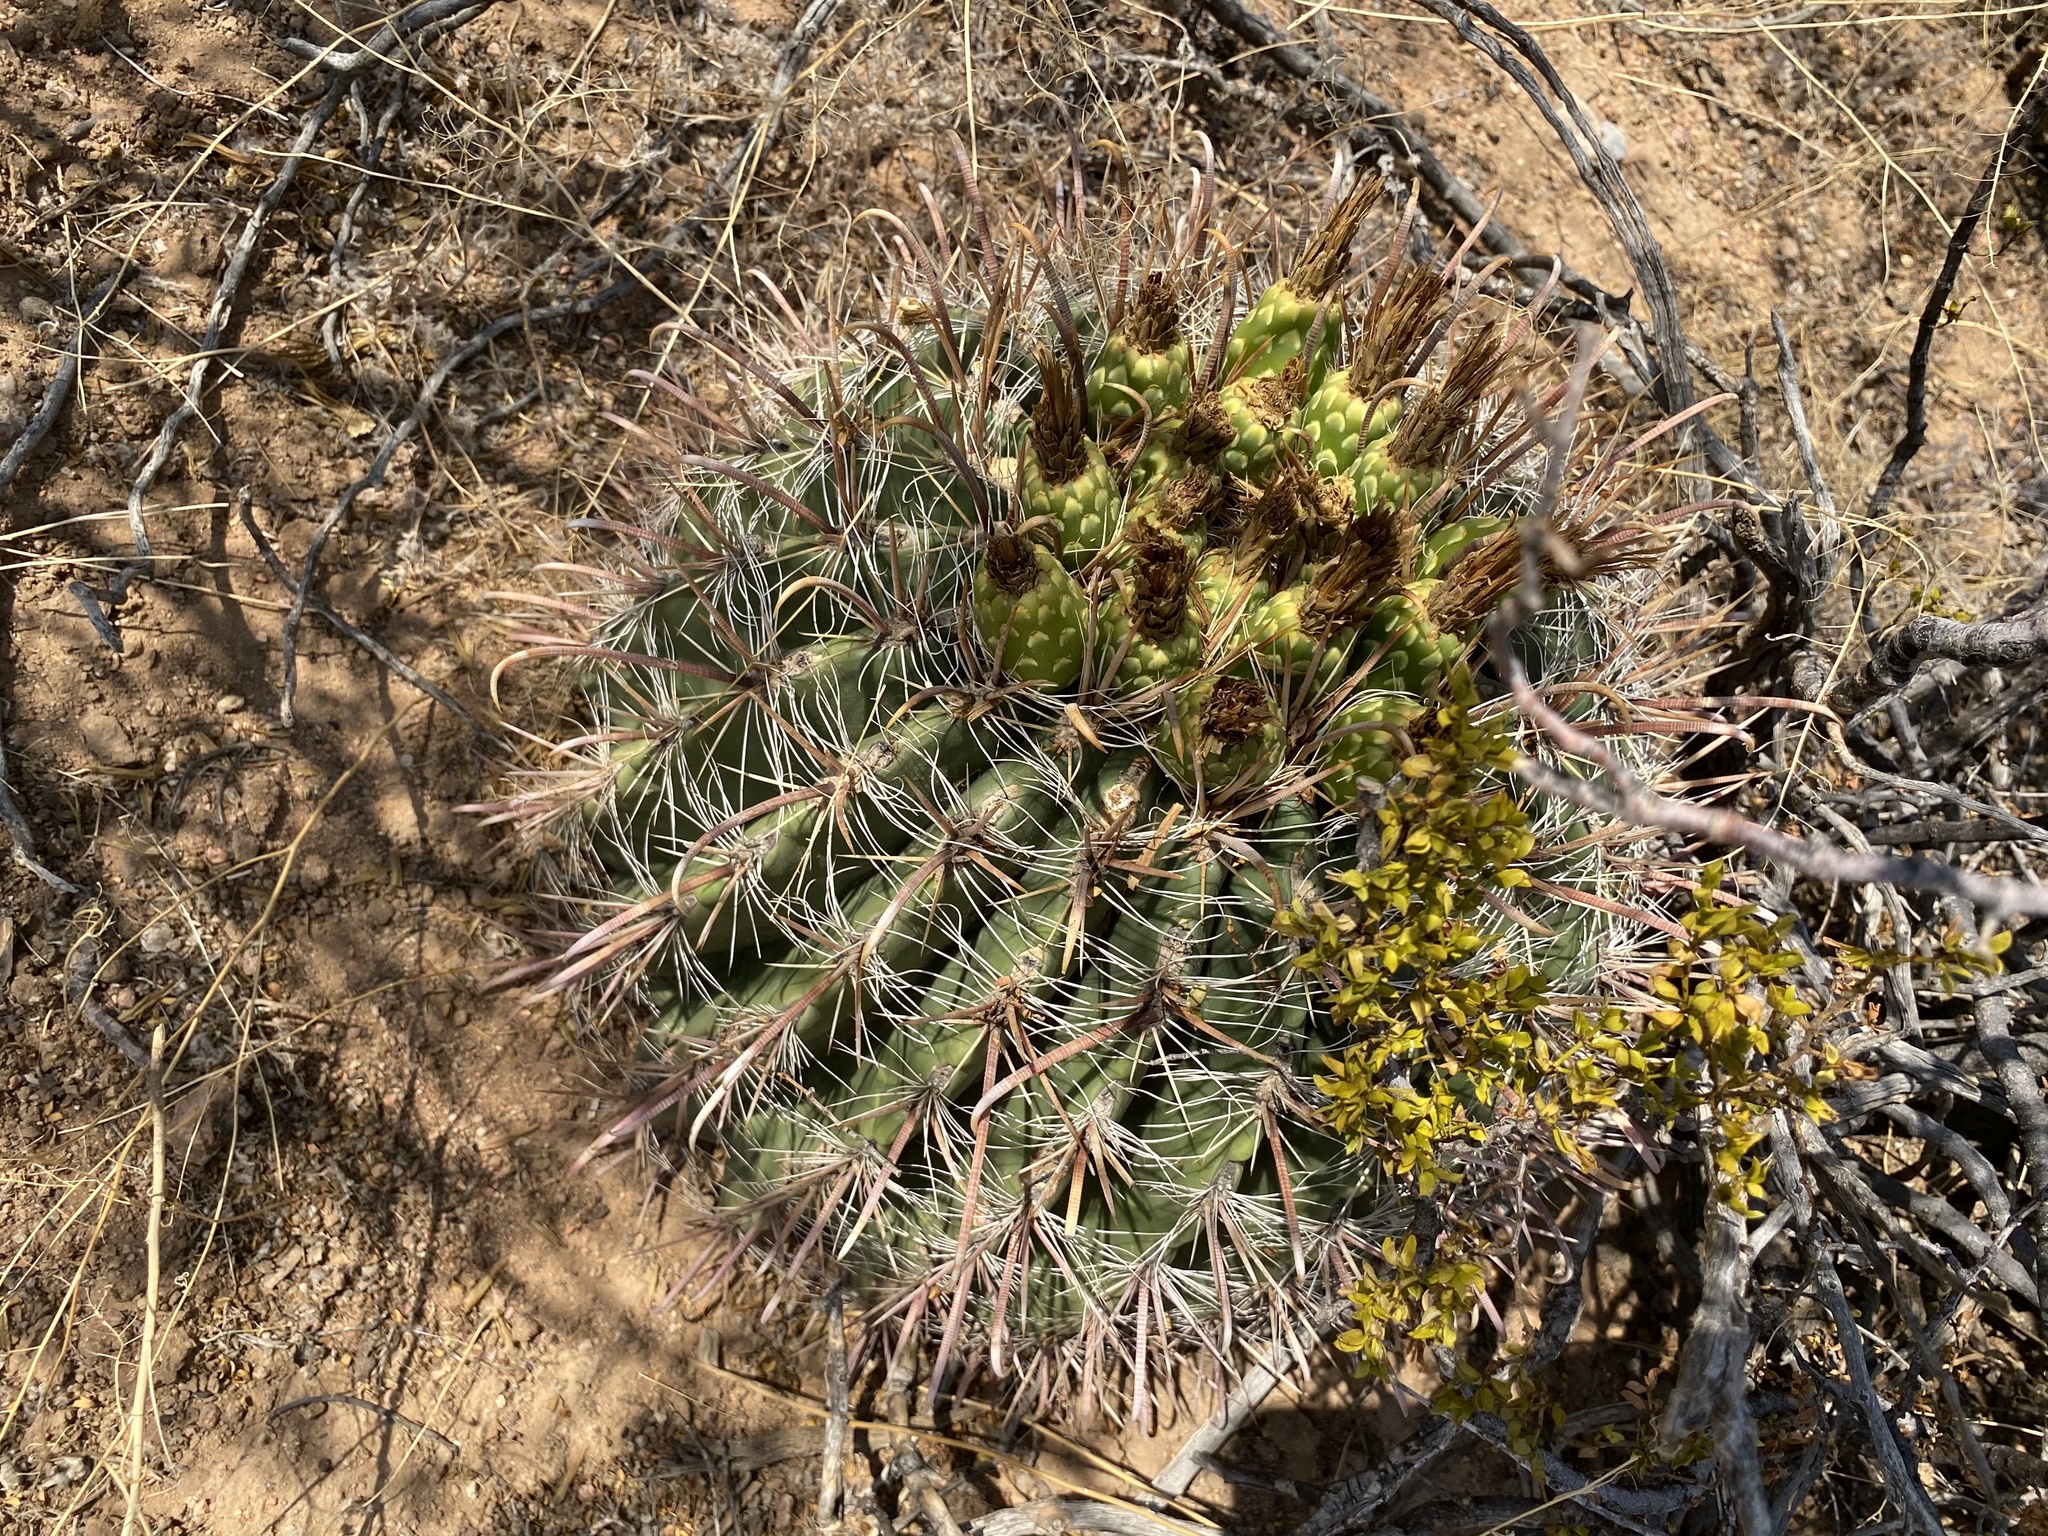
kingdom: Plantae
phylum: Tracheophyta
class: Magnoliopsida
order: Caryophyllales
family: Cactaceae
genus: Ferocactus
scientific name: Ferocactus wislizeni
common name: Candy barrel cactus
